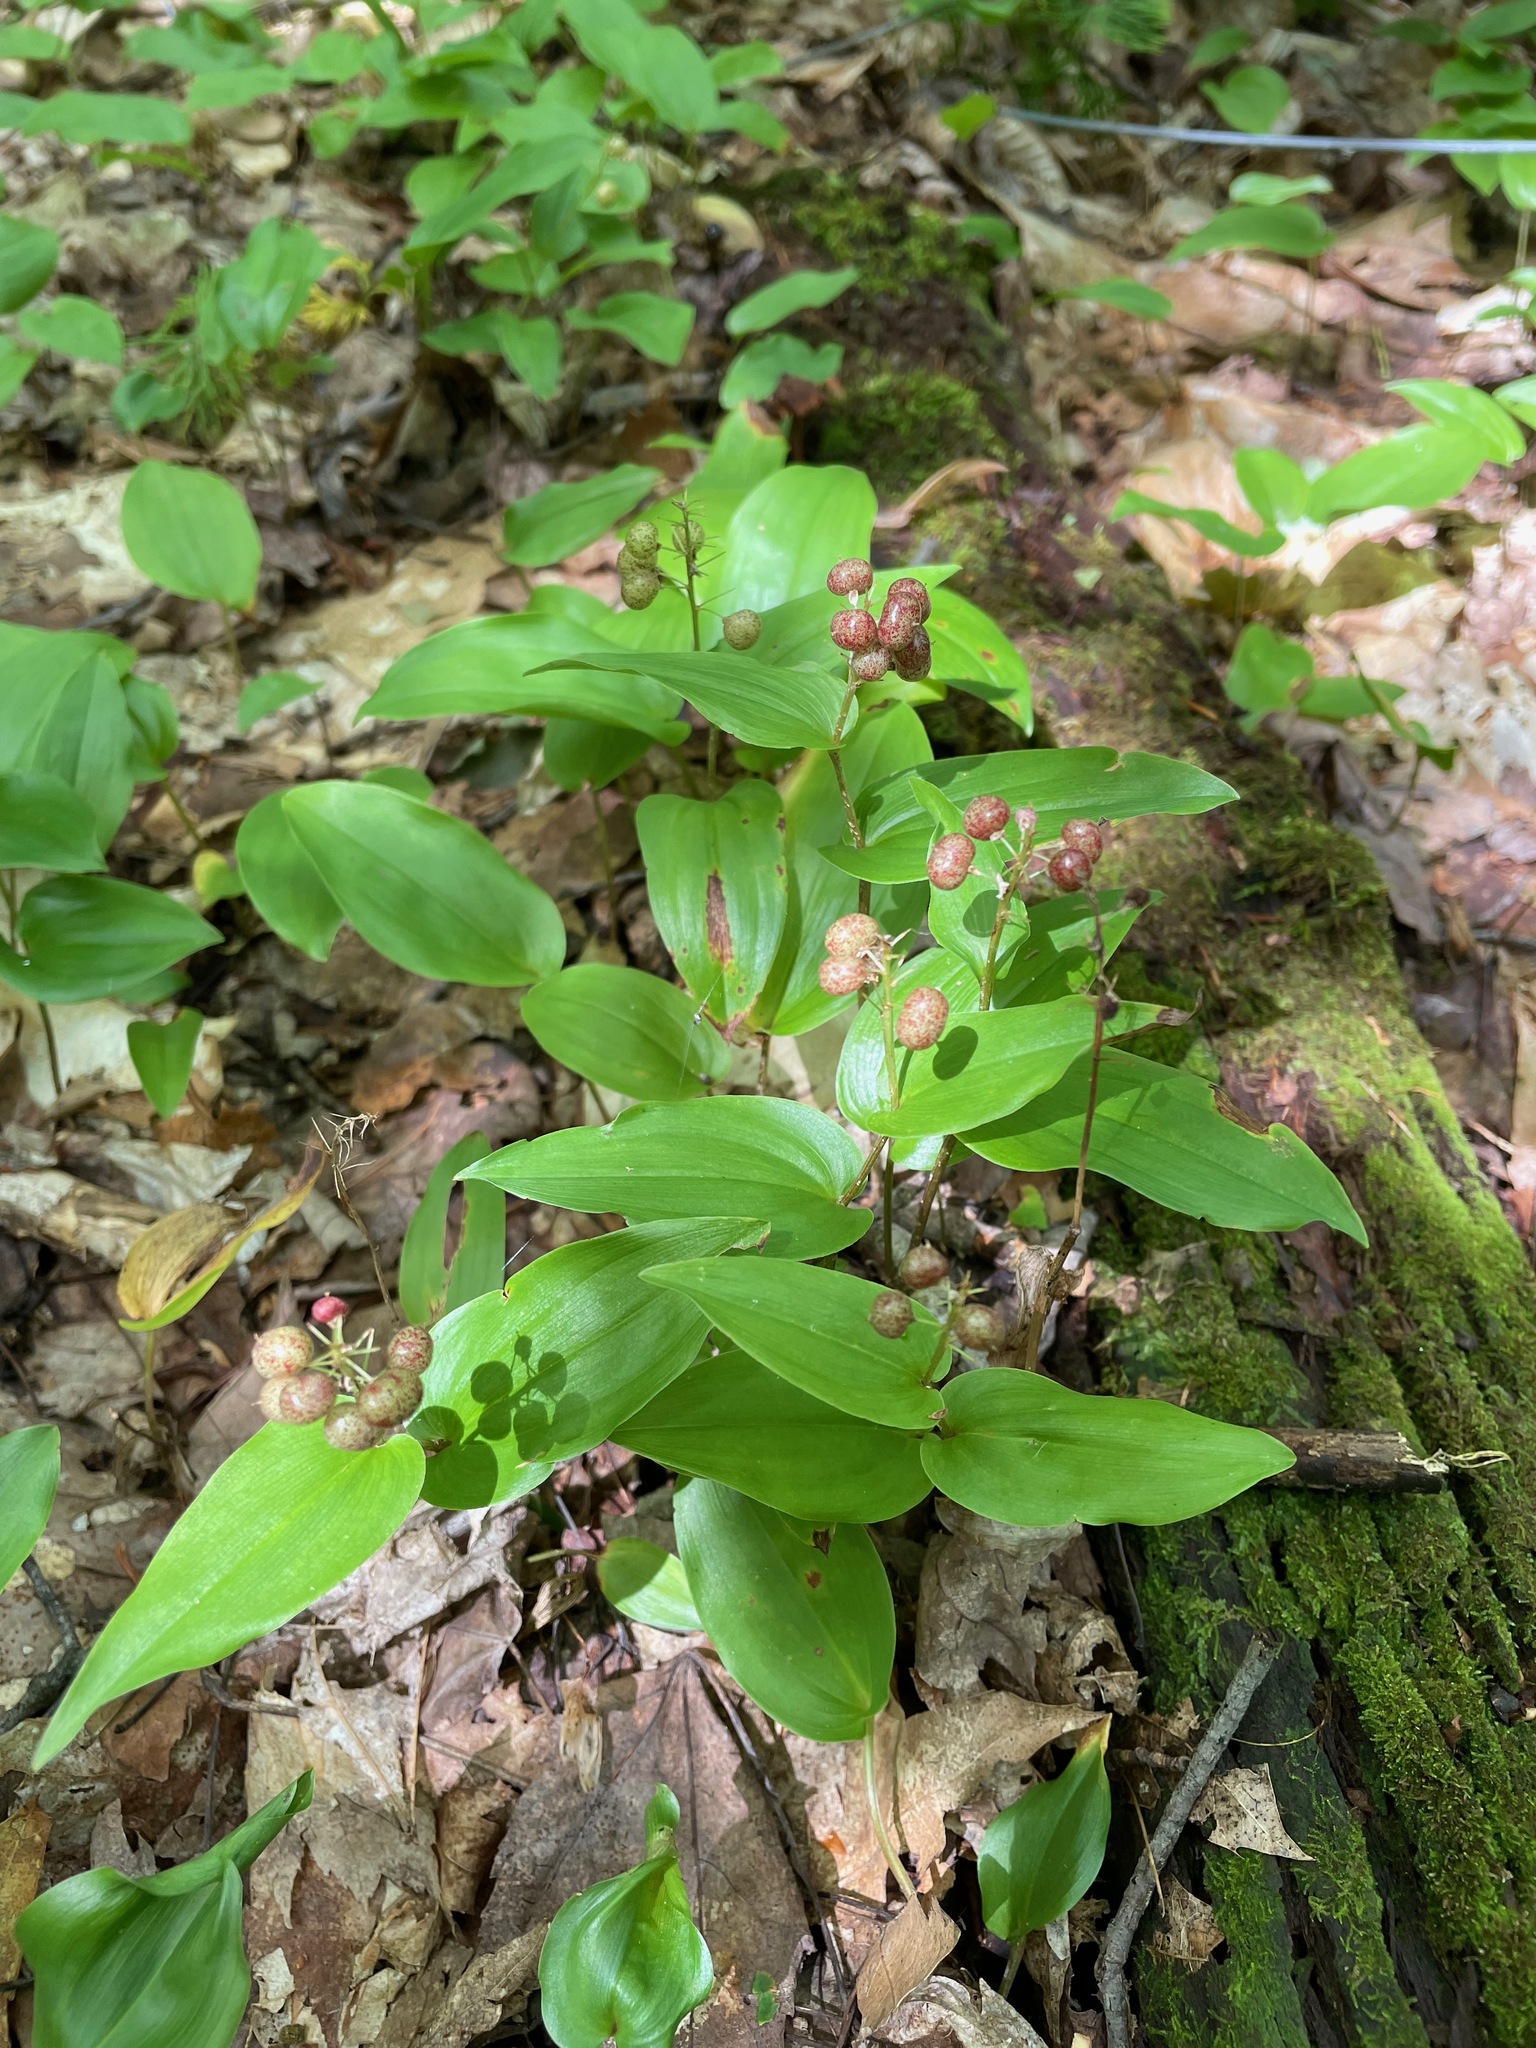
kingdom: Plantae
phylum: Tracheophyta
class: Liliopsida
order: Asparagales
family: Asparagaceae
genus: Maianthemum
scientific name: Maianthemum canadense
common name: False lily-of-the-valley
